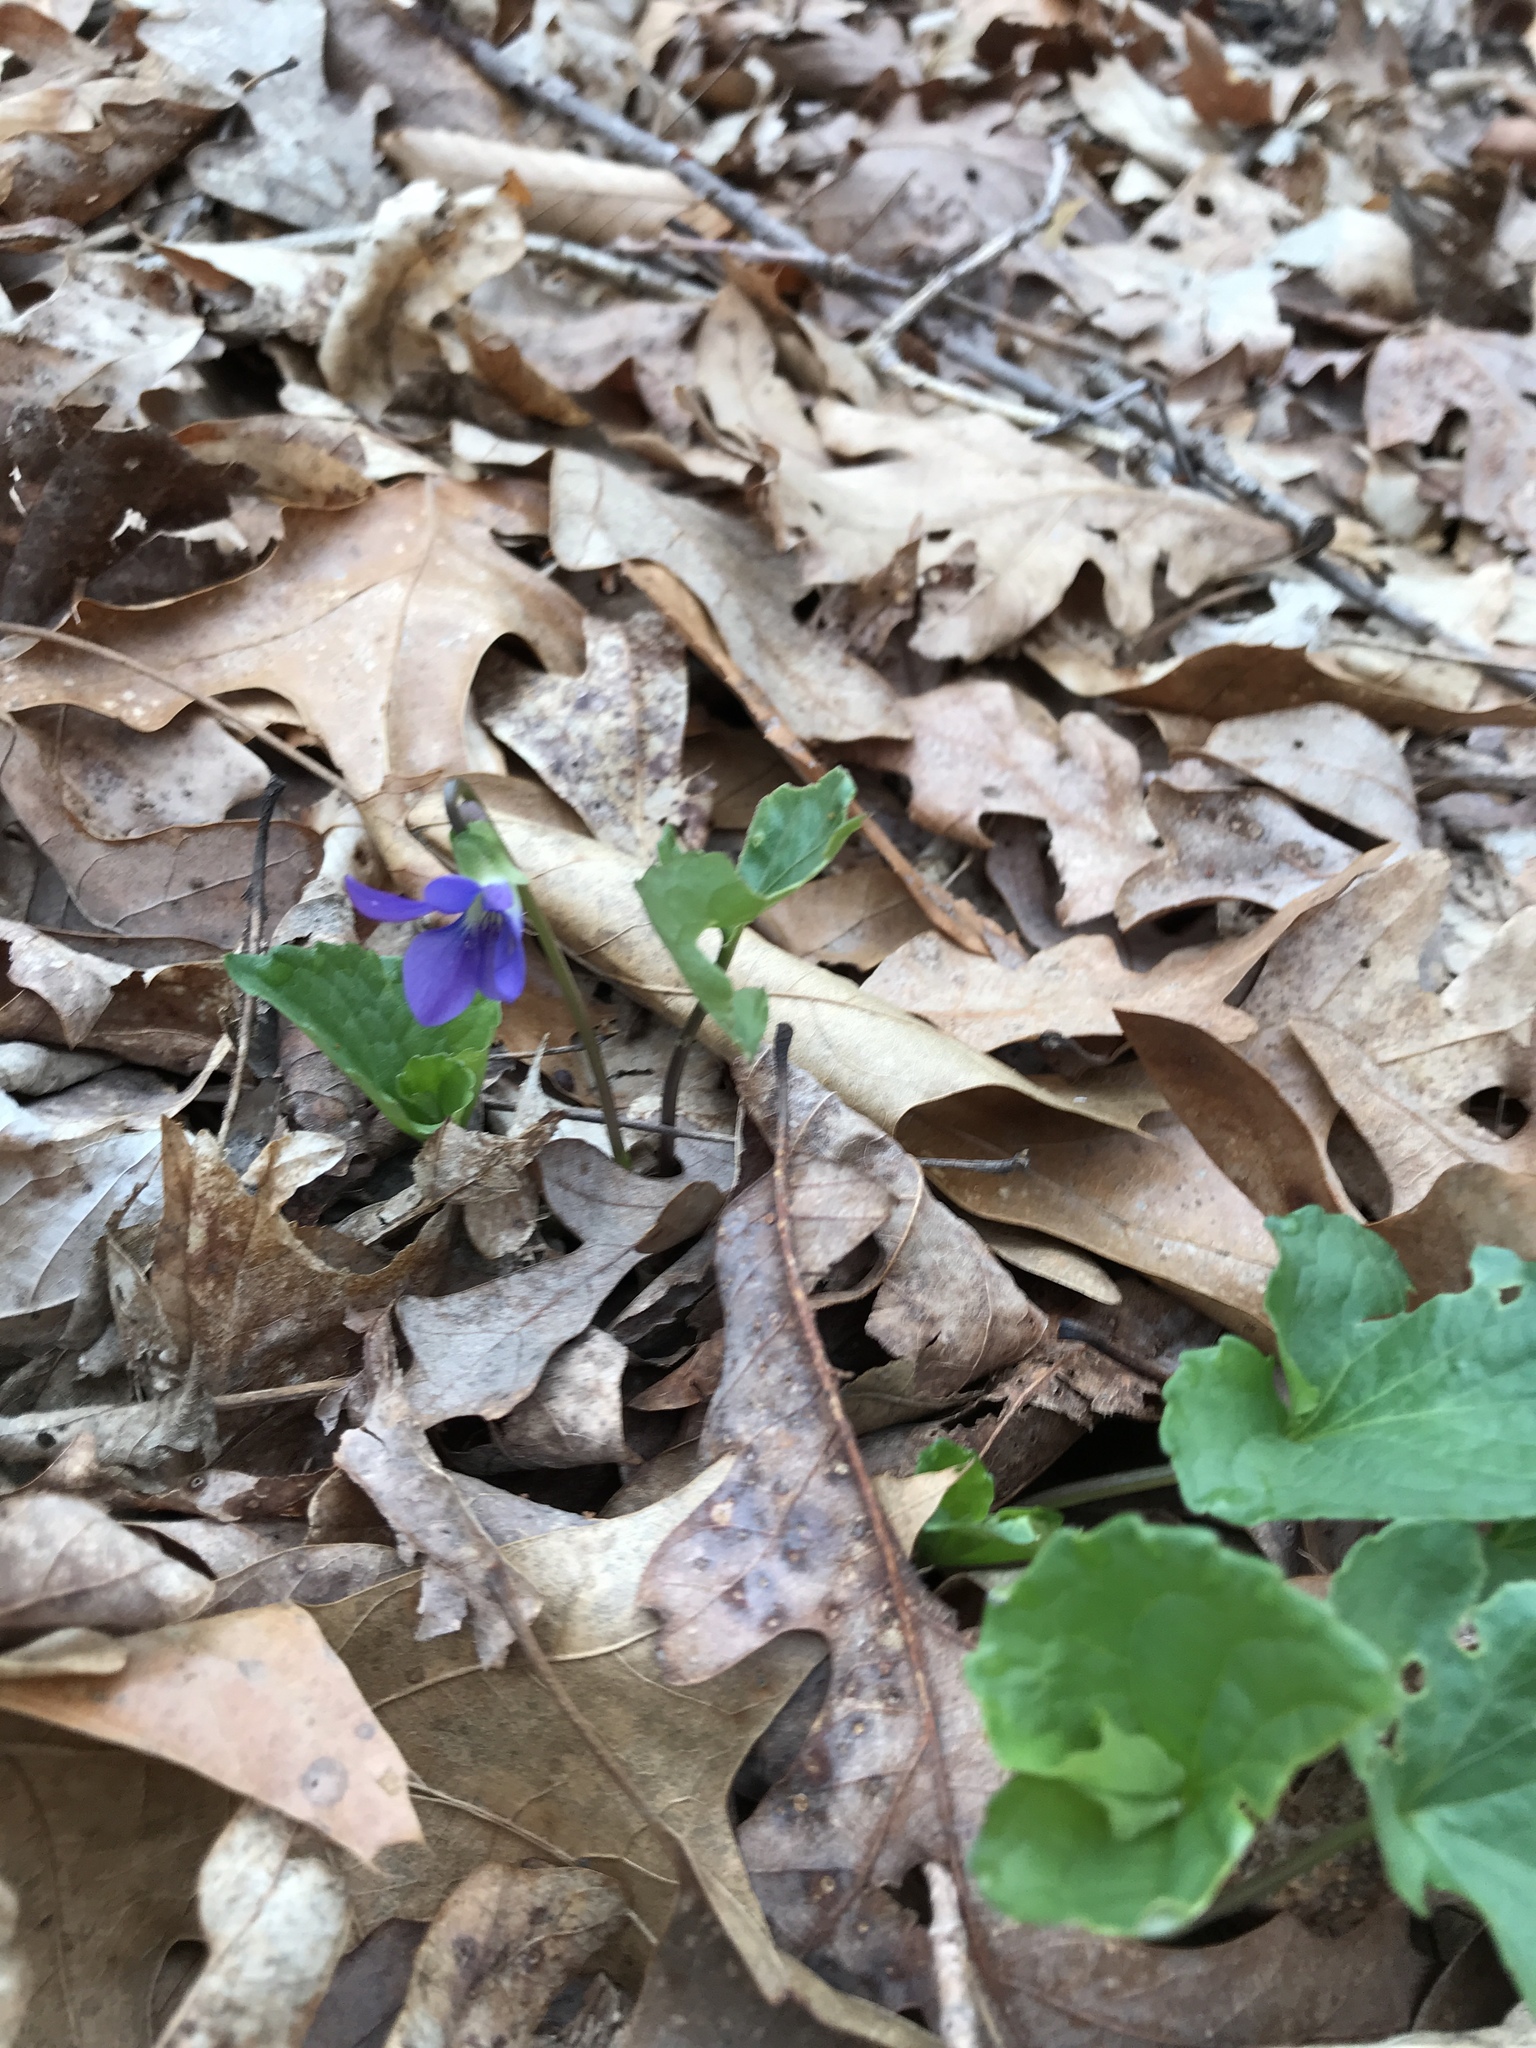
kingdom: Plantae
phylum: Tracheophyta
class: Magnoliopsida
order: Malpighiales
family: Violaceae
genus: Viola
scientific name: Viola sororia
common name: Dooryard violet
